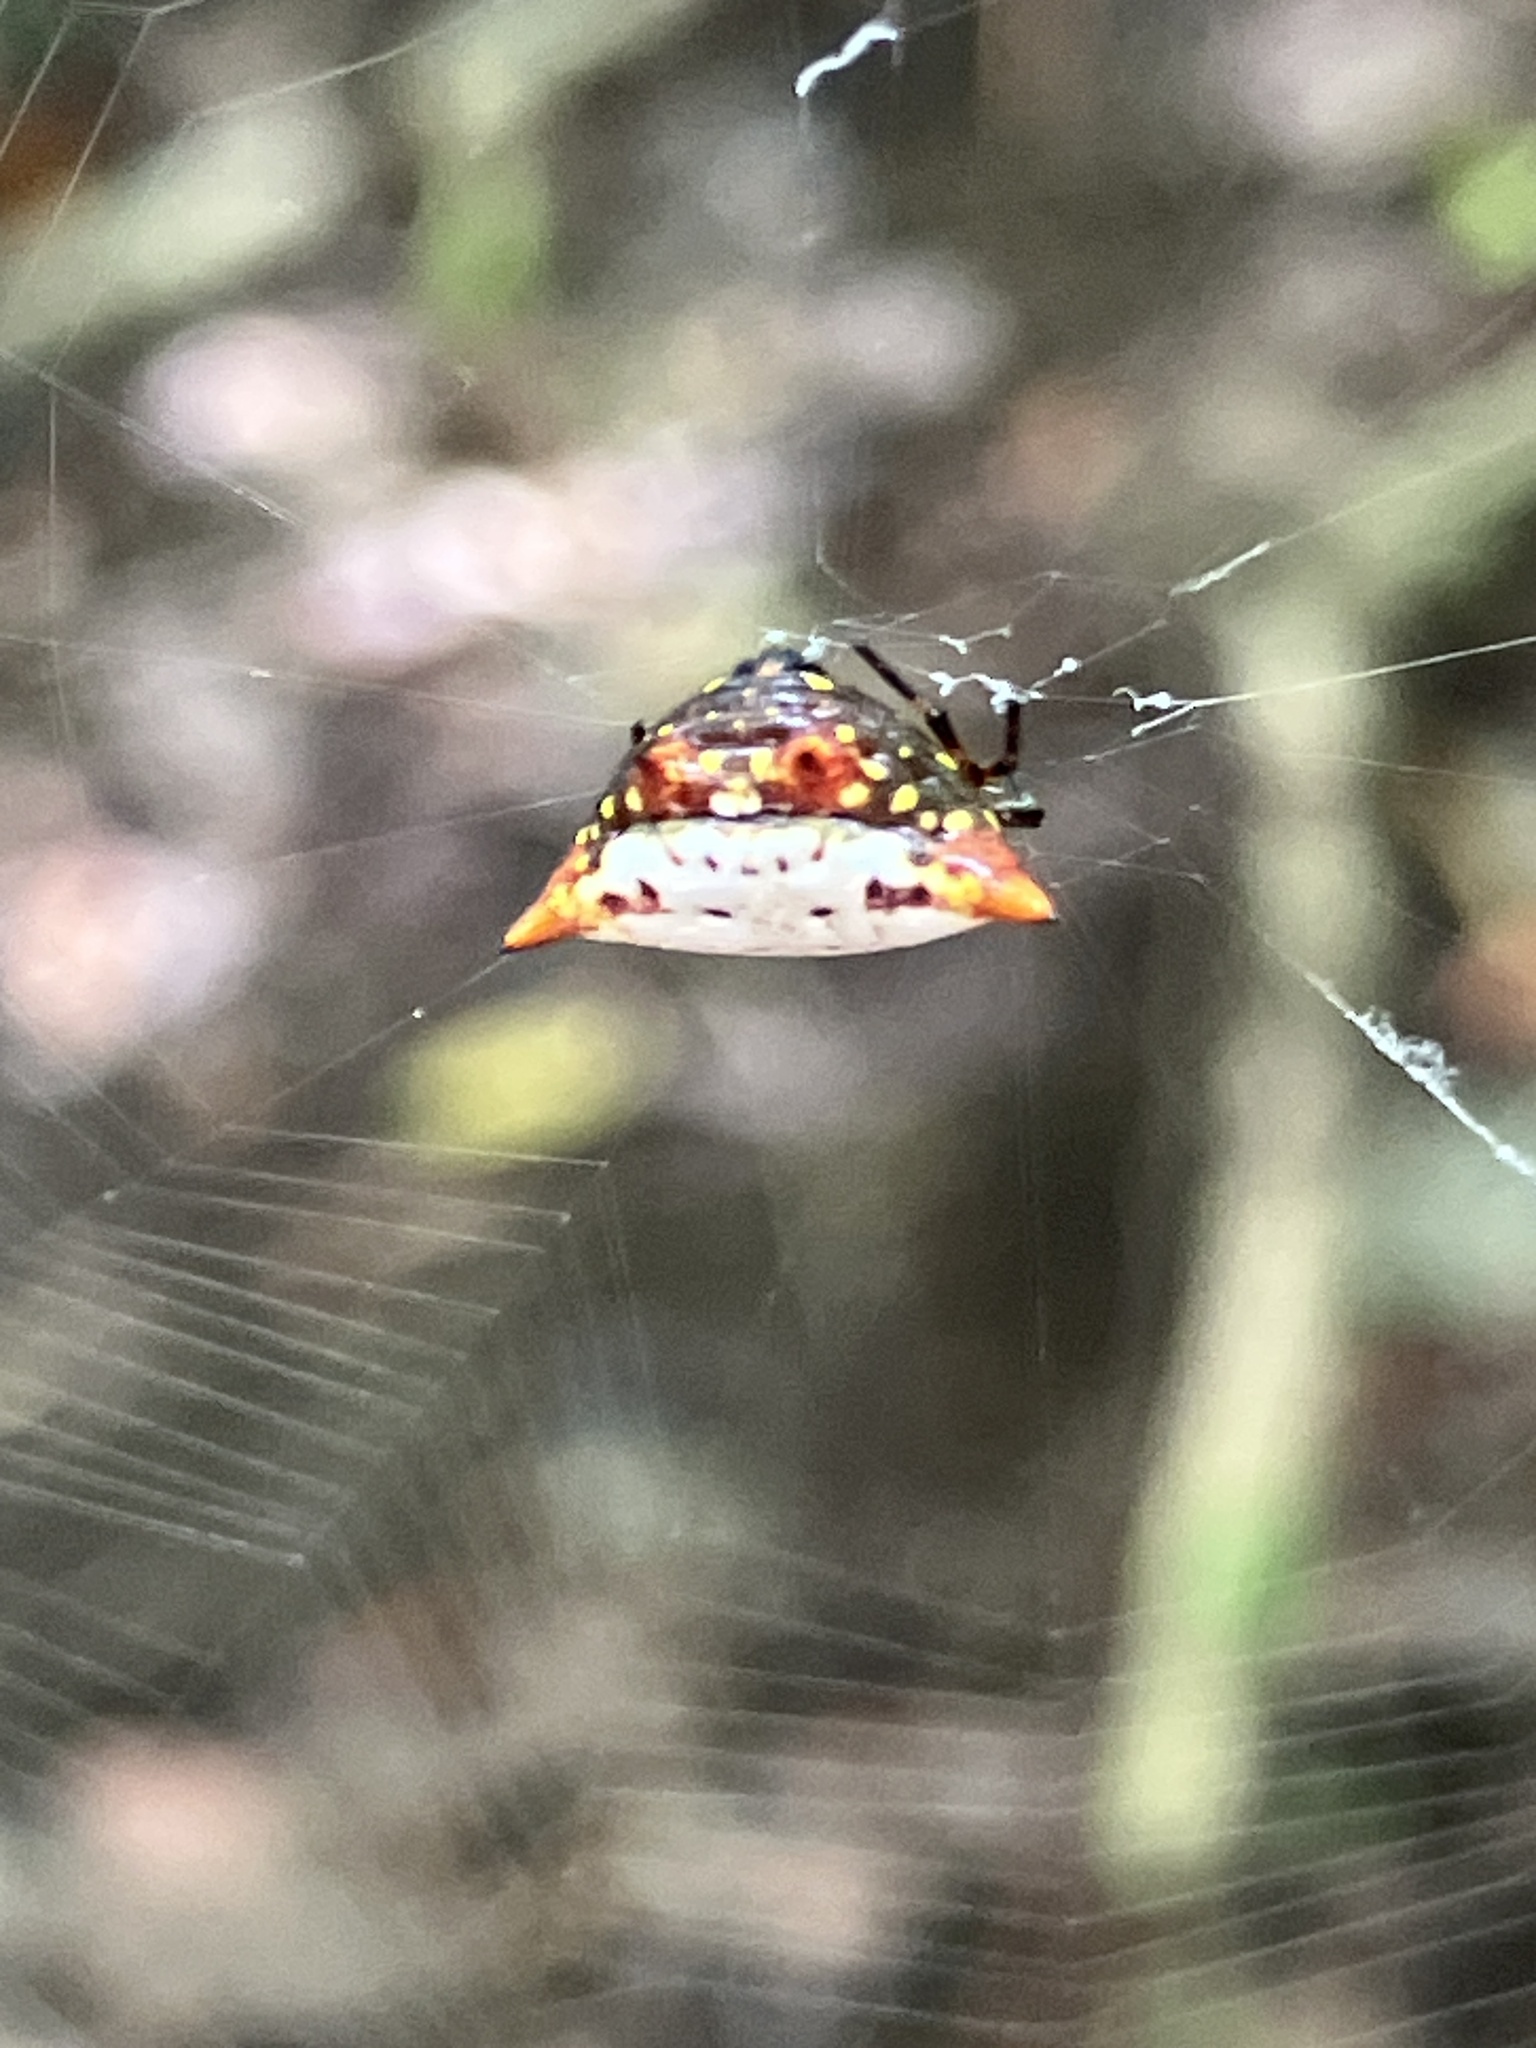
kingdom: Animalia
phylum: Arthropoda
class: Arachnida
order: Araneae
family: Araneidae
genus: Gasteracantha
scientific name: Gasteracantha cancriformis
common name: Orb weavers
